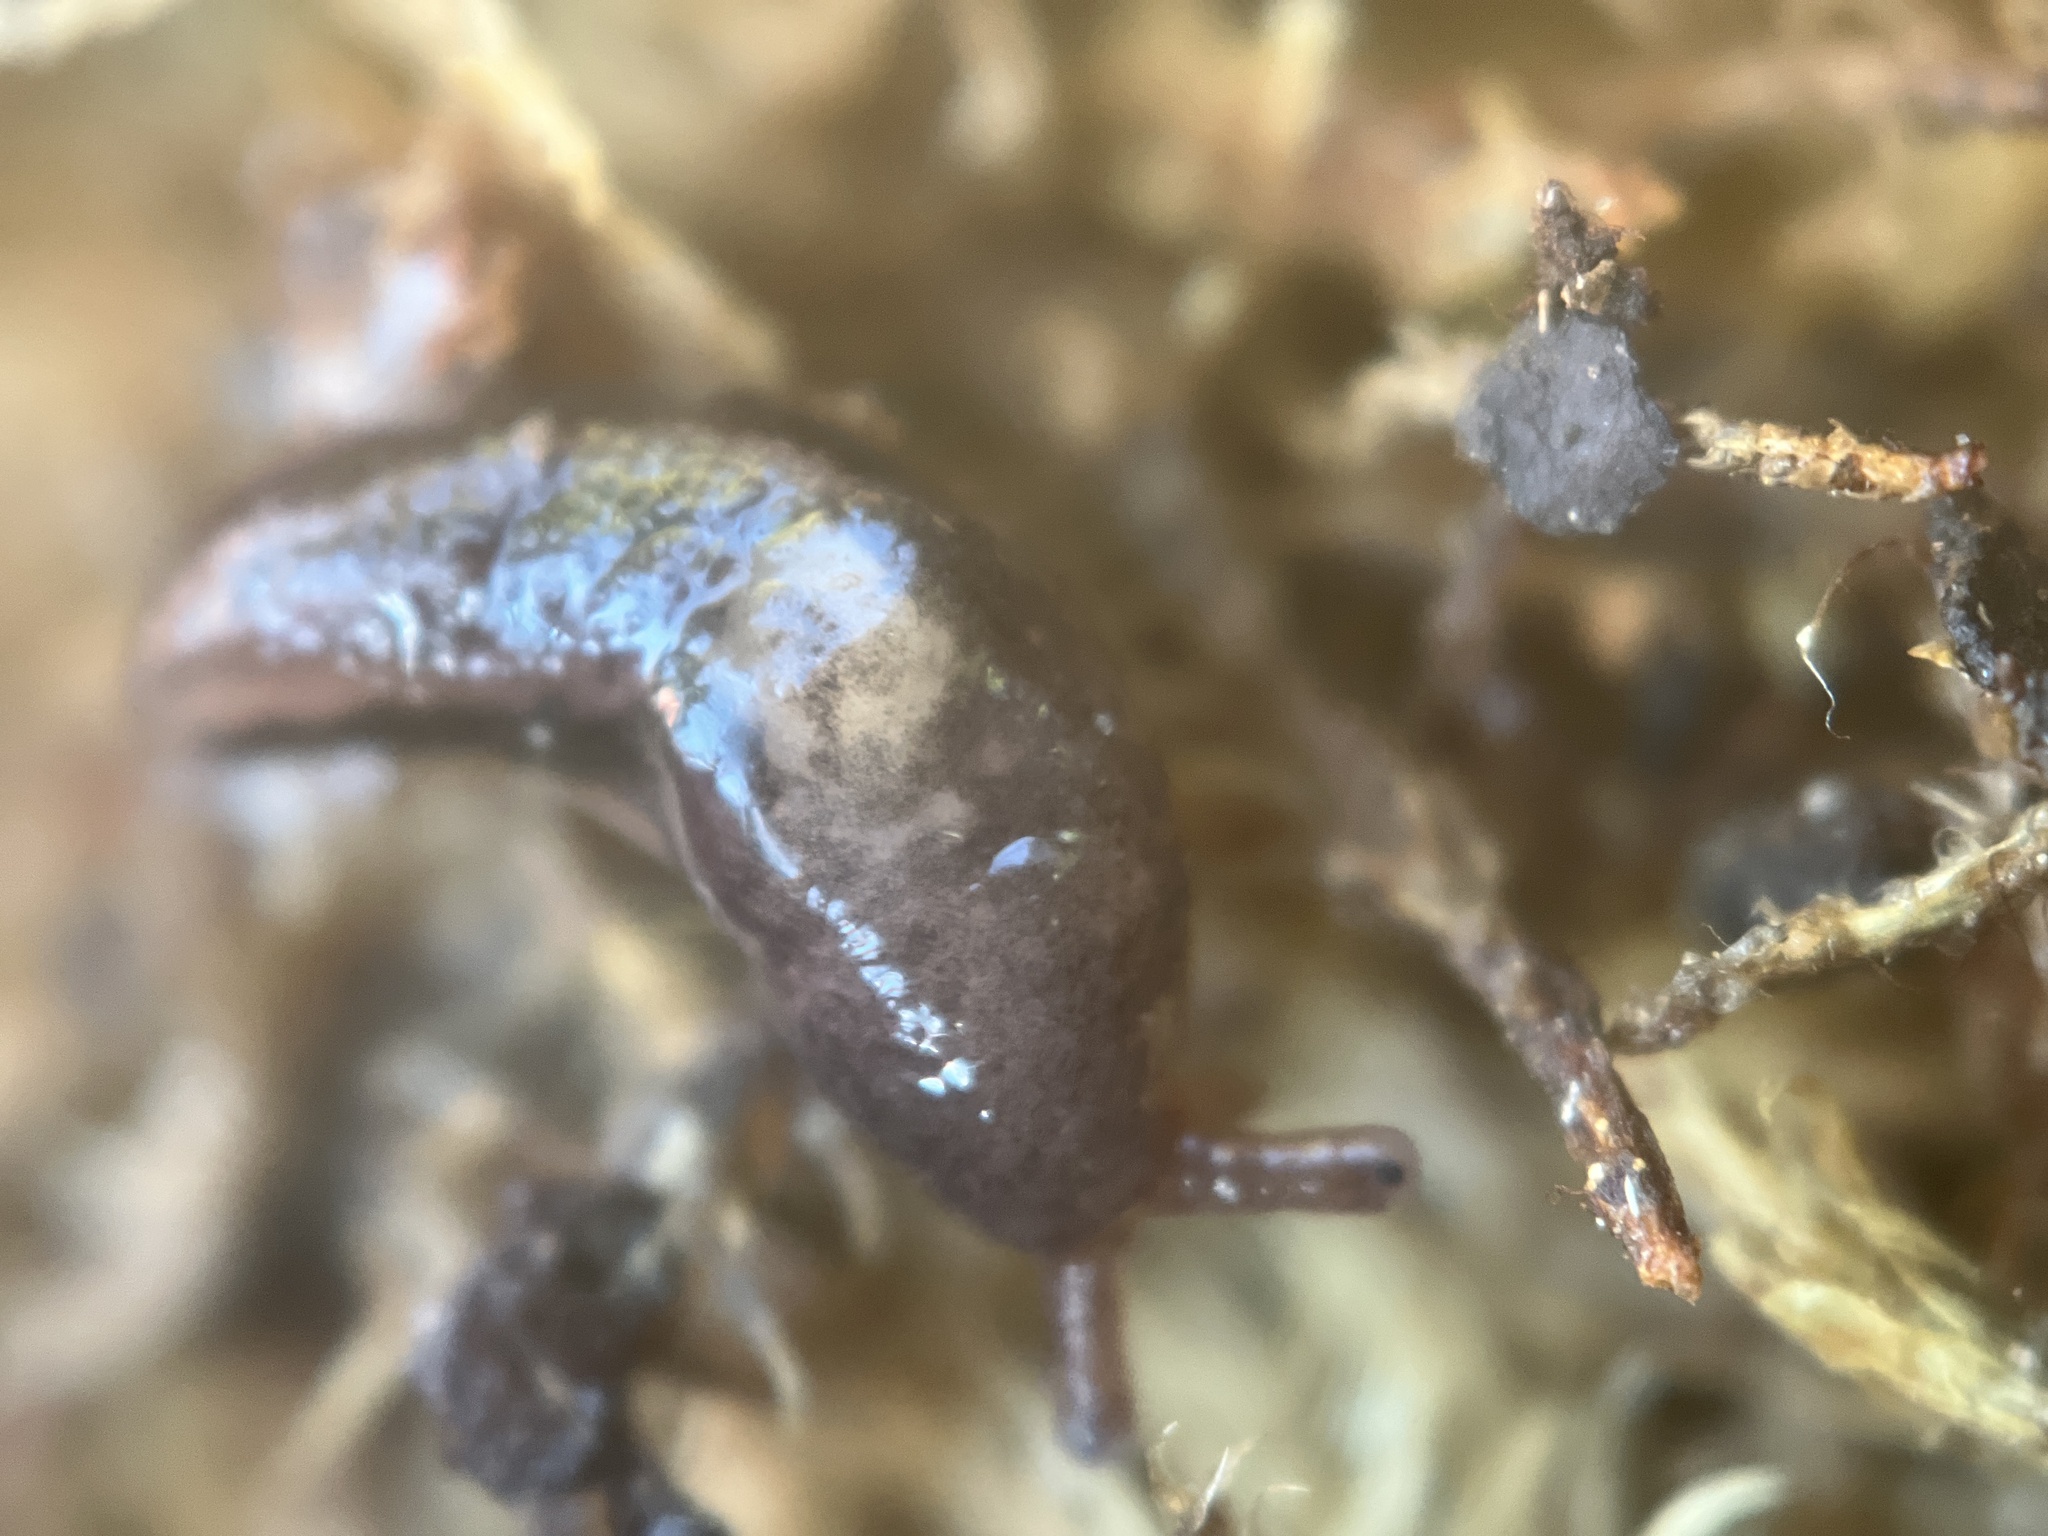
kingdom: Animalia
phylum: Mollusca
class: Gastropoda
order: Stylommatophora
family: Limacidae
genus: Limax
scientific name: Limax maximus
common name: Great grey slug
